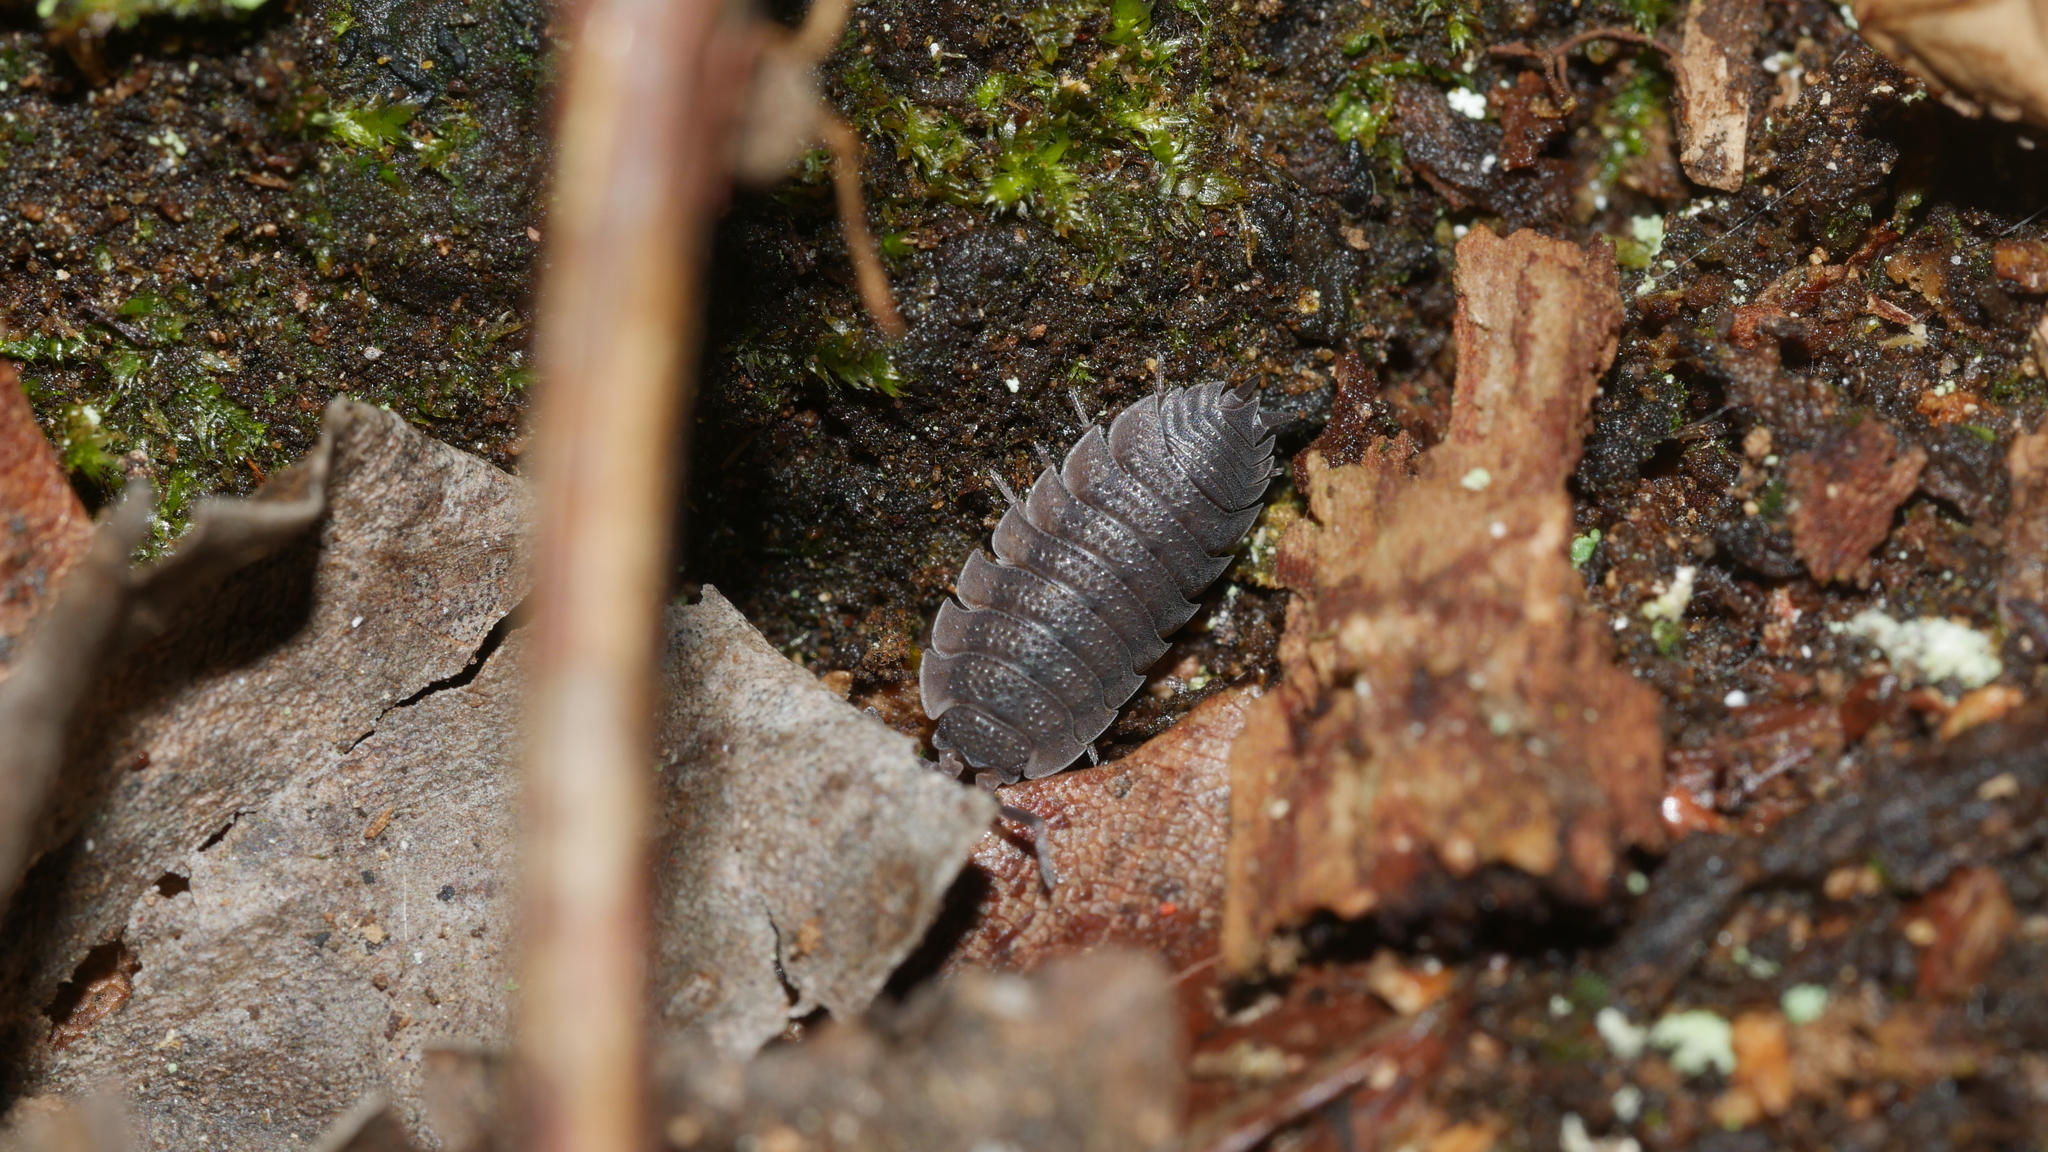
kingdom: Animalia
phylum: Arthropoda
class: Malacostraca
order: Isopoda
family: Porcellionidae
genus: Porcellio
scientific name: Porcellio scaber
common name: Common rough woodlouse
